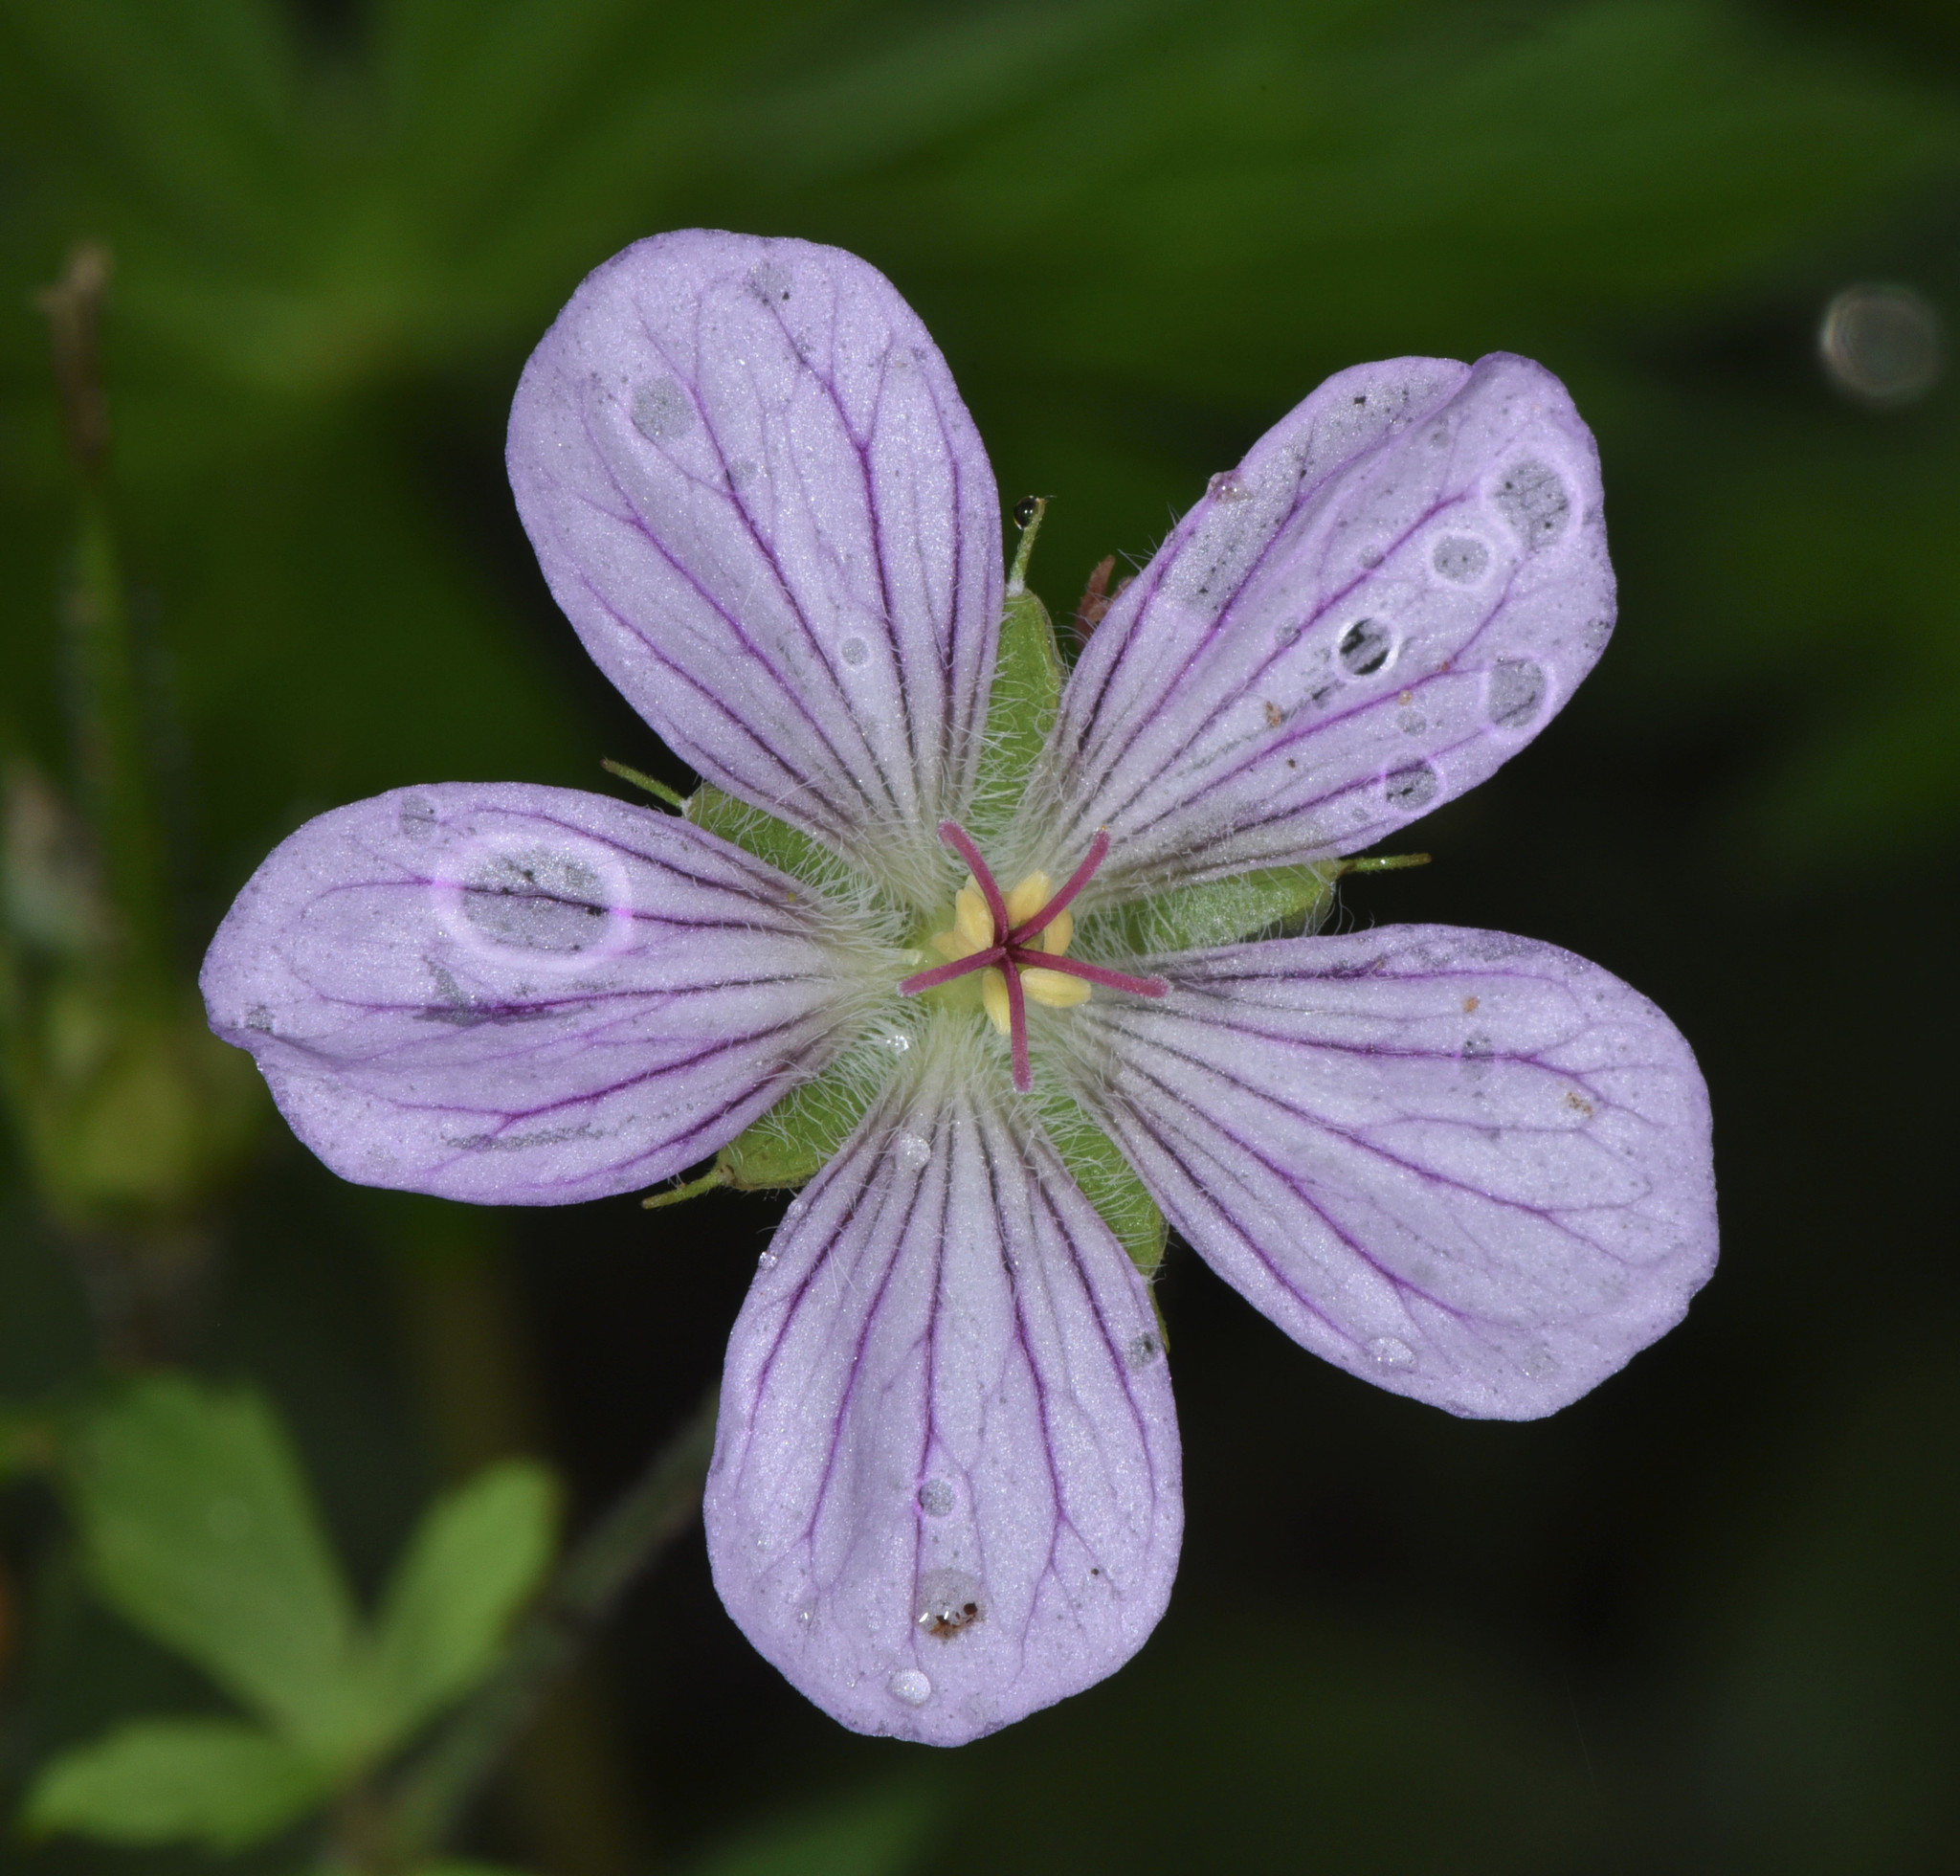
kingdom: Plantae
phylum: Tracheophyta
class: Magnoliopsida
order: Geraniales
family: Geraniaceae
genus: Geranium
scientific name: Geranium richardsonii
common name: Richardson's crane's-bill
